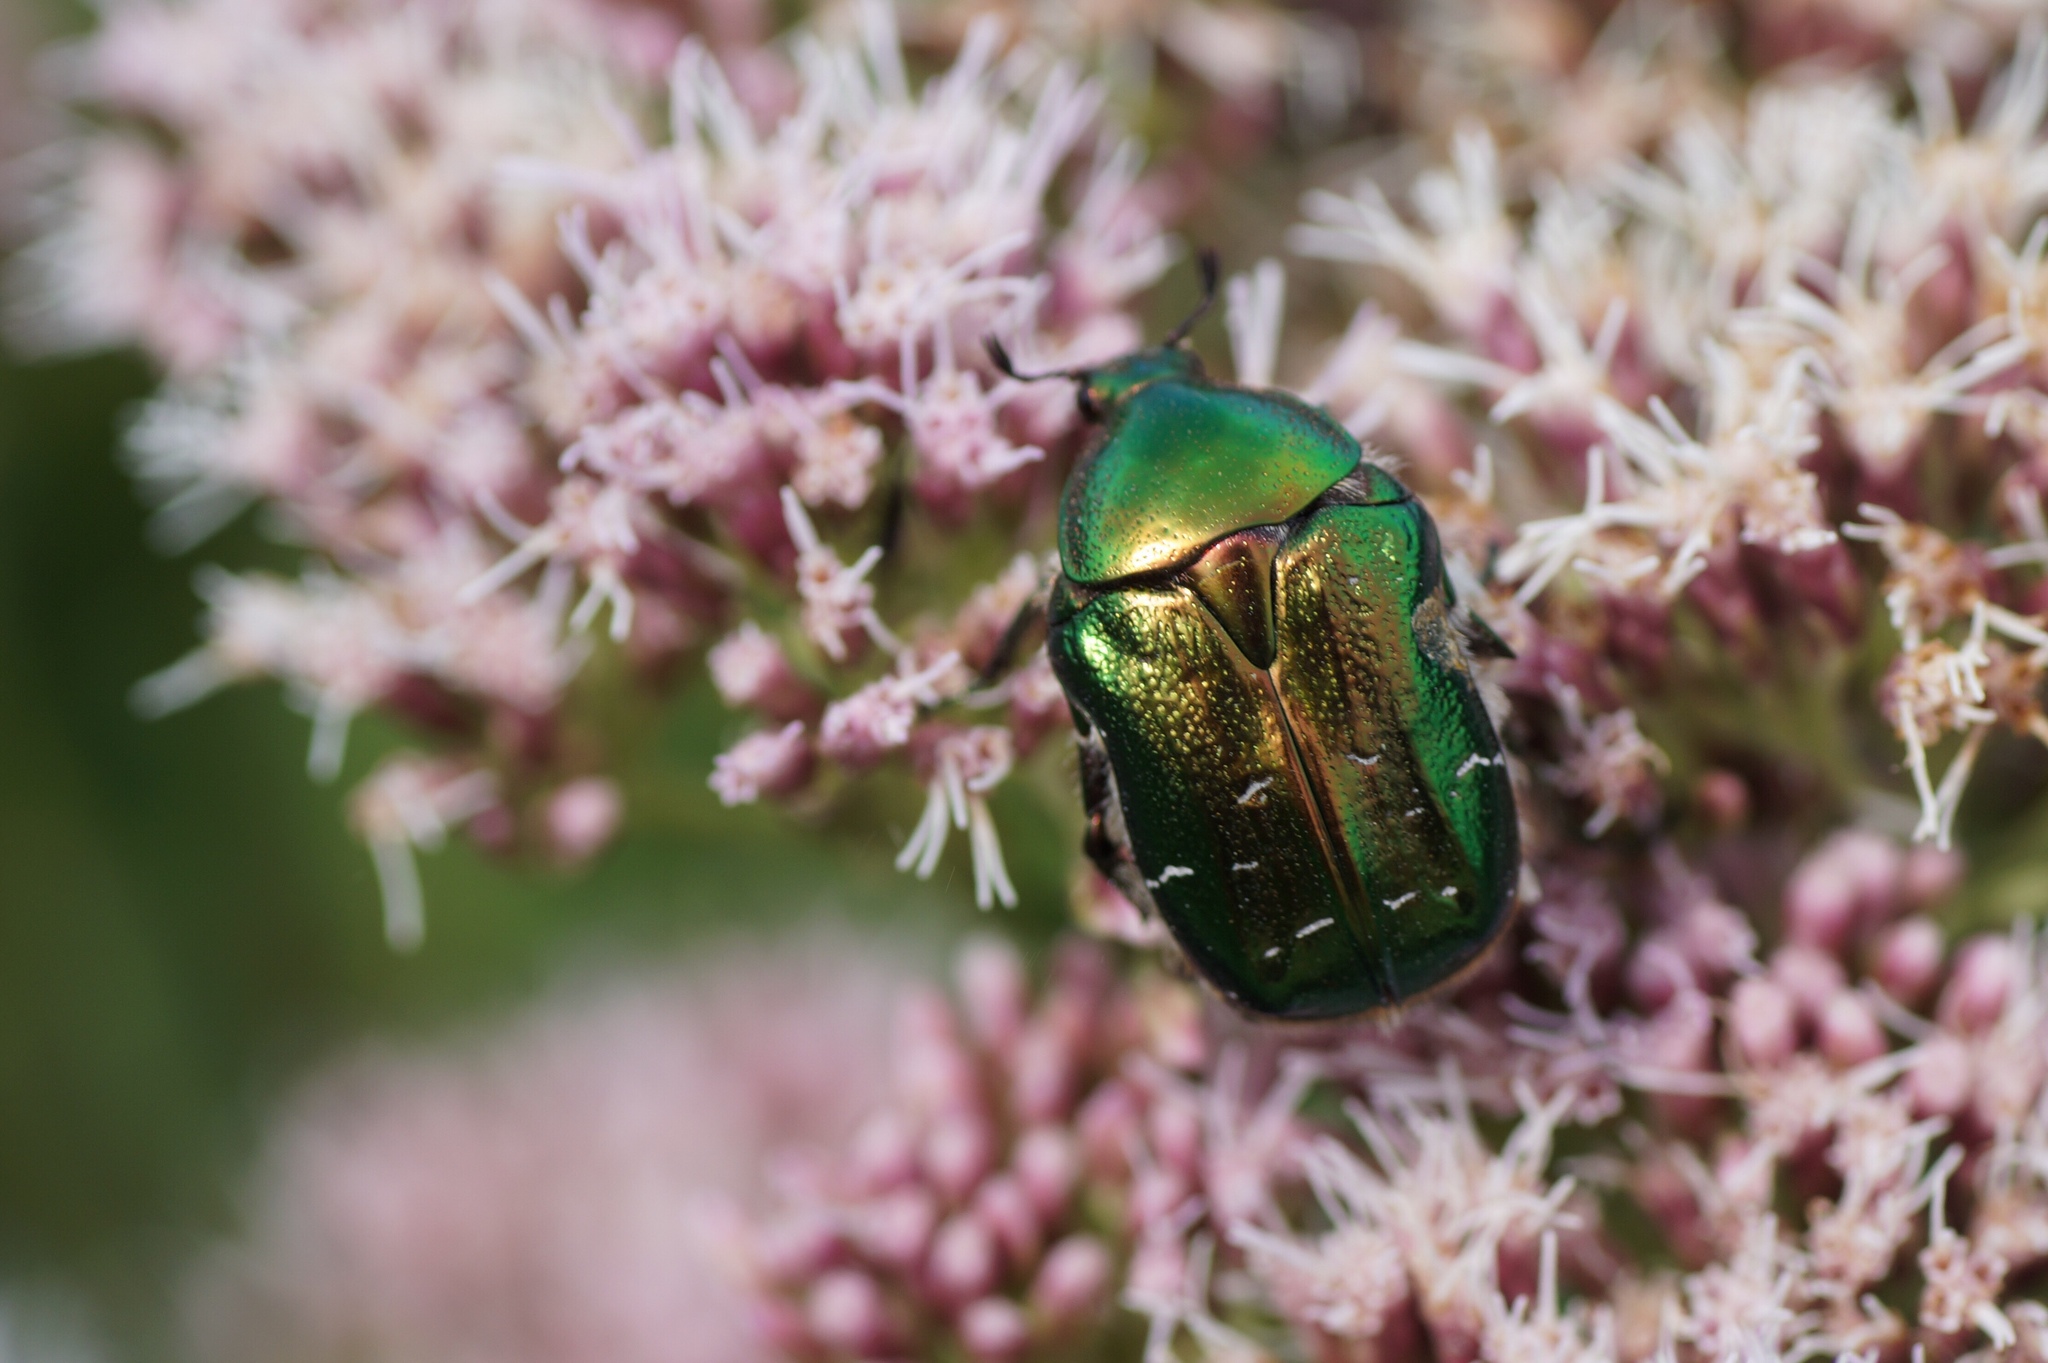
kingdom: Animalia
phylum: Arthropoda
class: Insecta
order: Coleoptera
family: Scarabaeidae
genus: Cetonia
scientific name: Cetonia aurata
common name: Rose chafer
